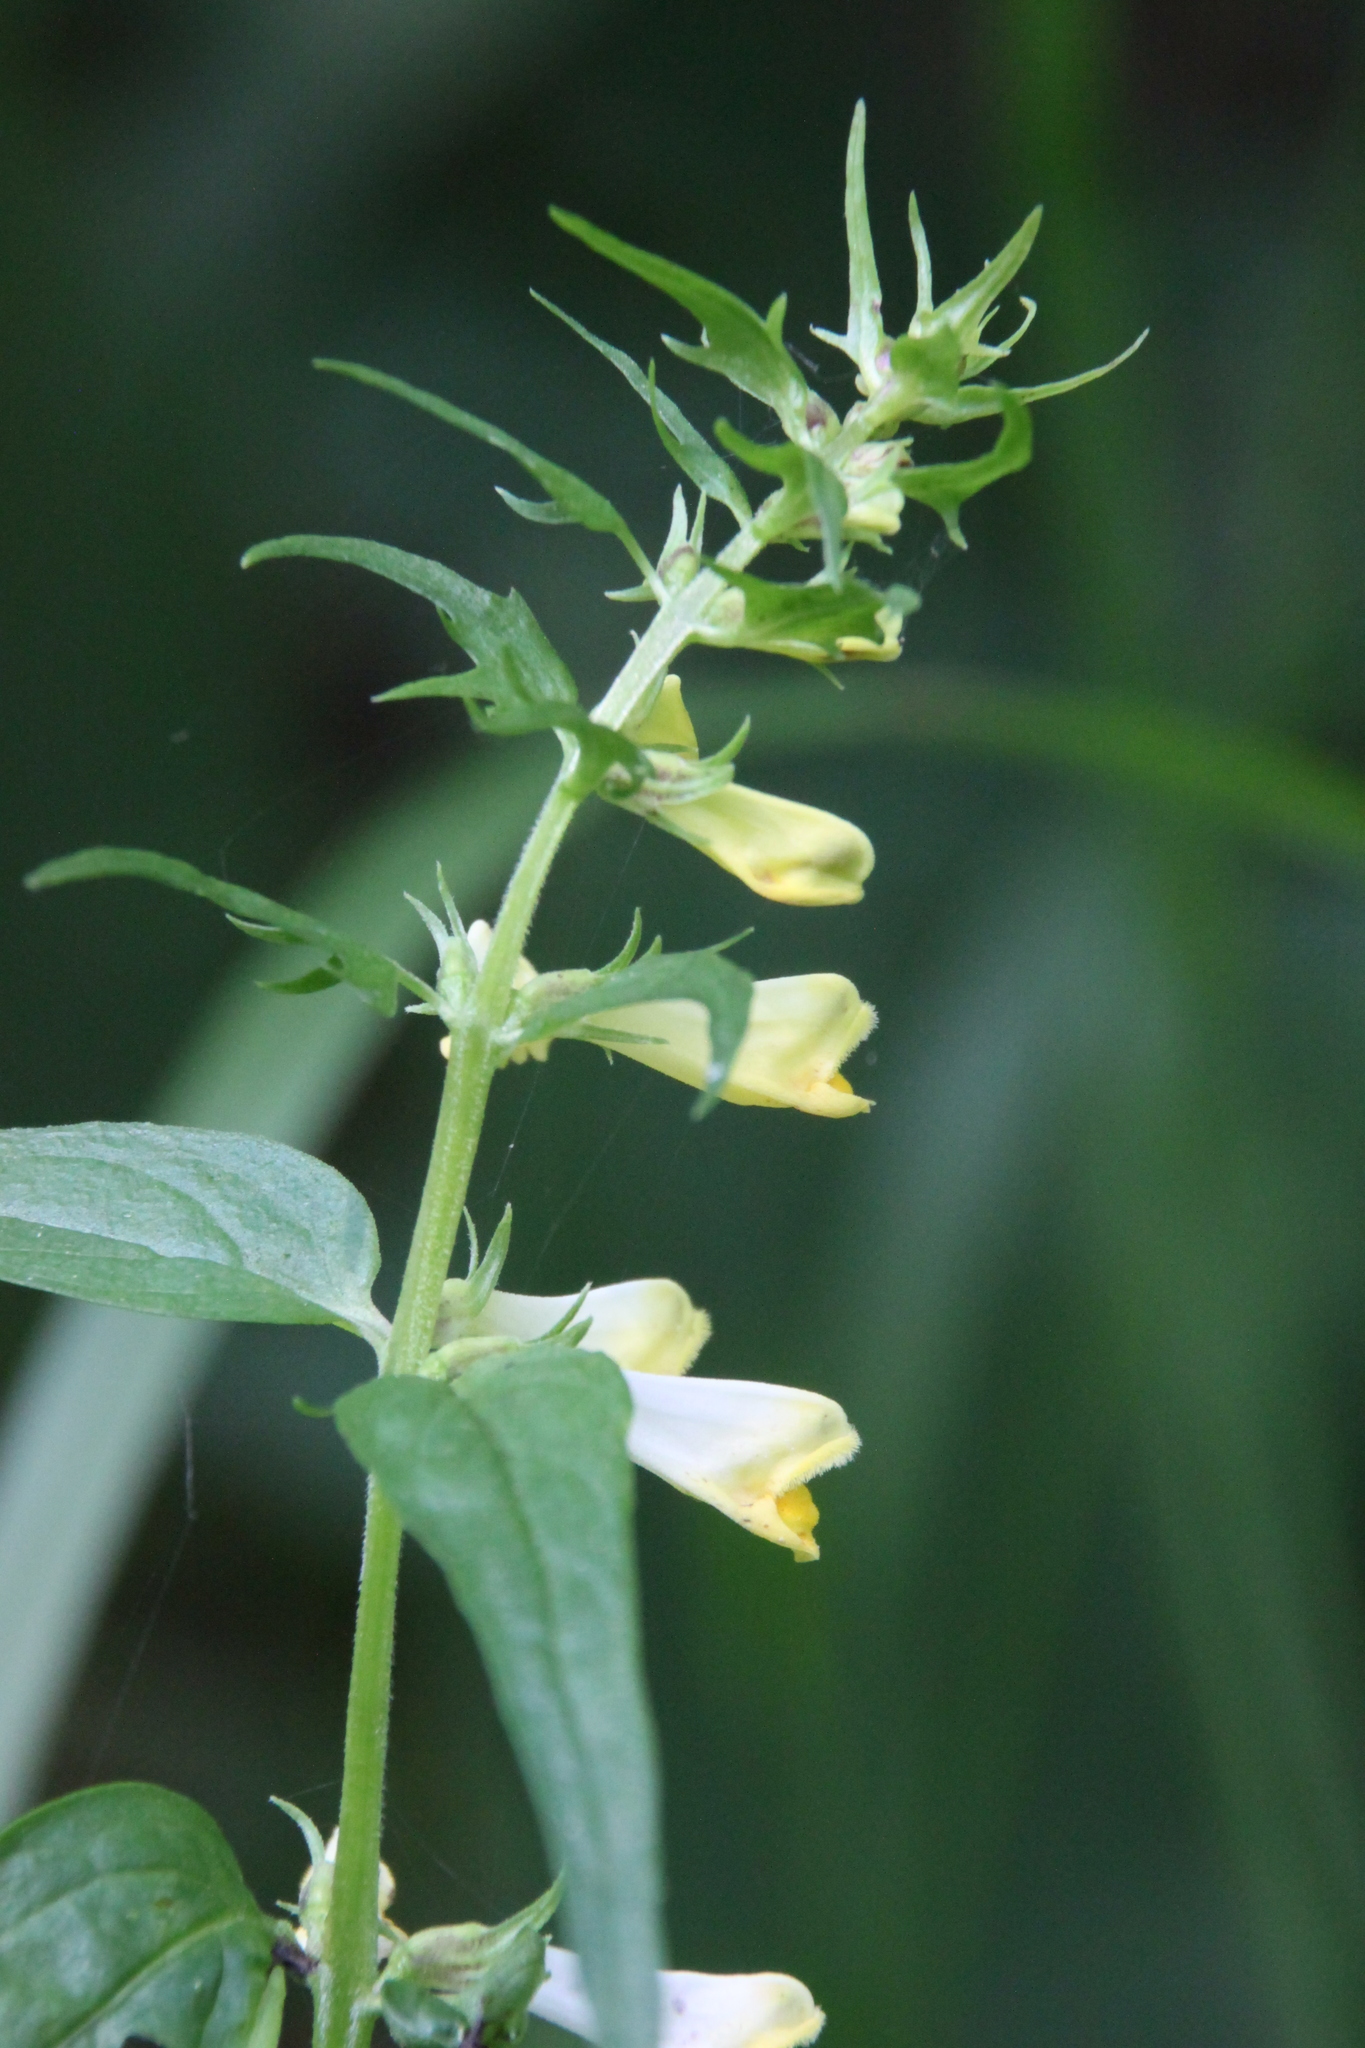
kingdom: Plantae
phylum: Tracheophyta
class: Magnoliopsida
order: Lamiales
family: Orobanchaceae
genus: Melampyrum
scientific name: Melampyrum pratense
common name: Common cow-wheat
